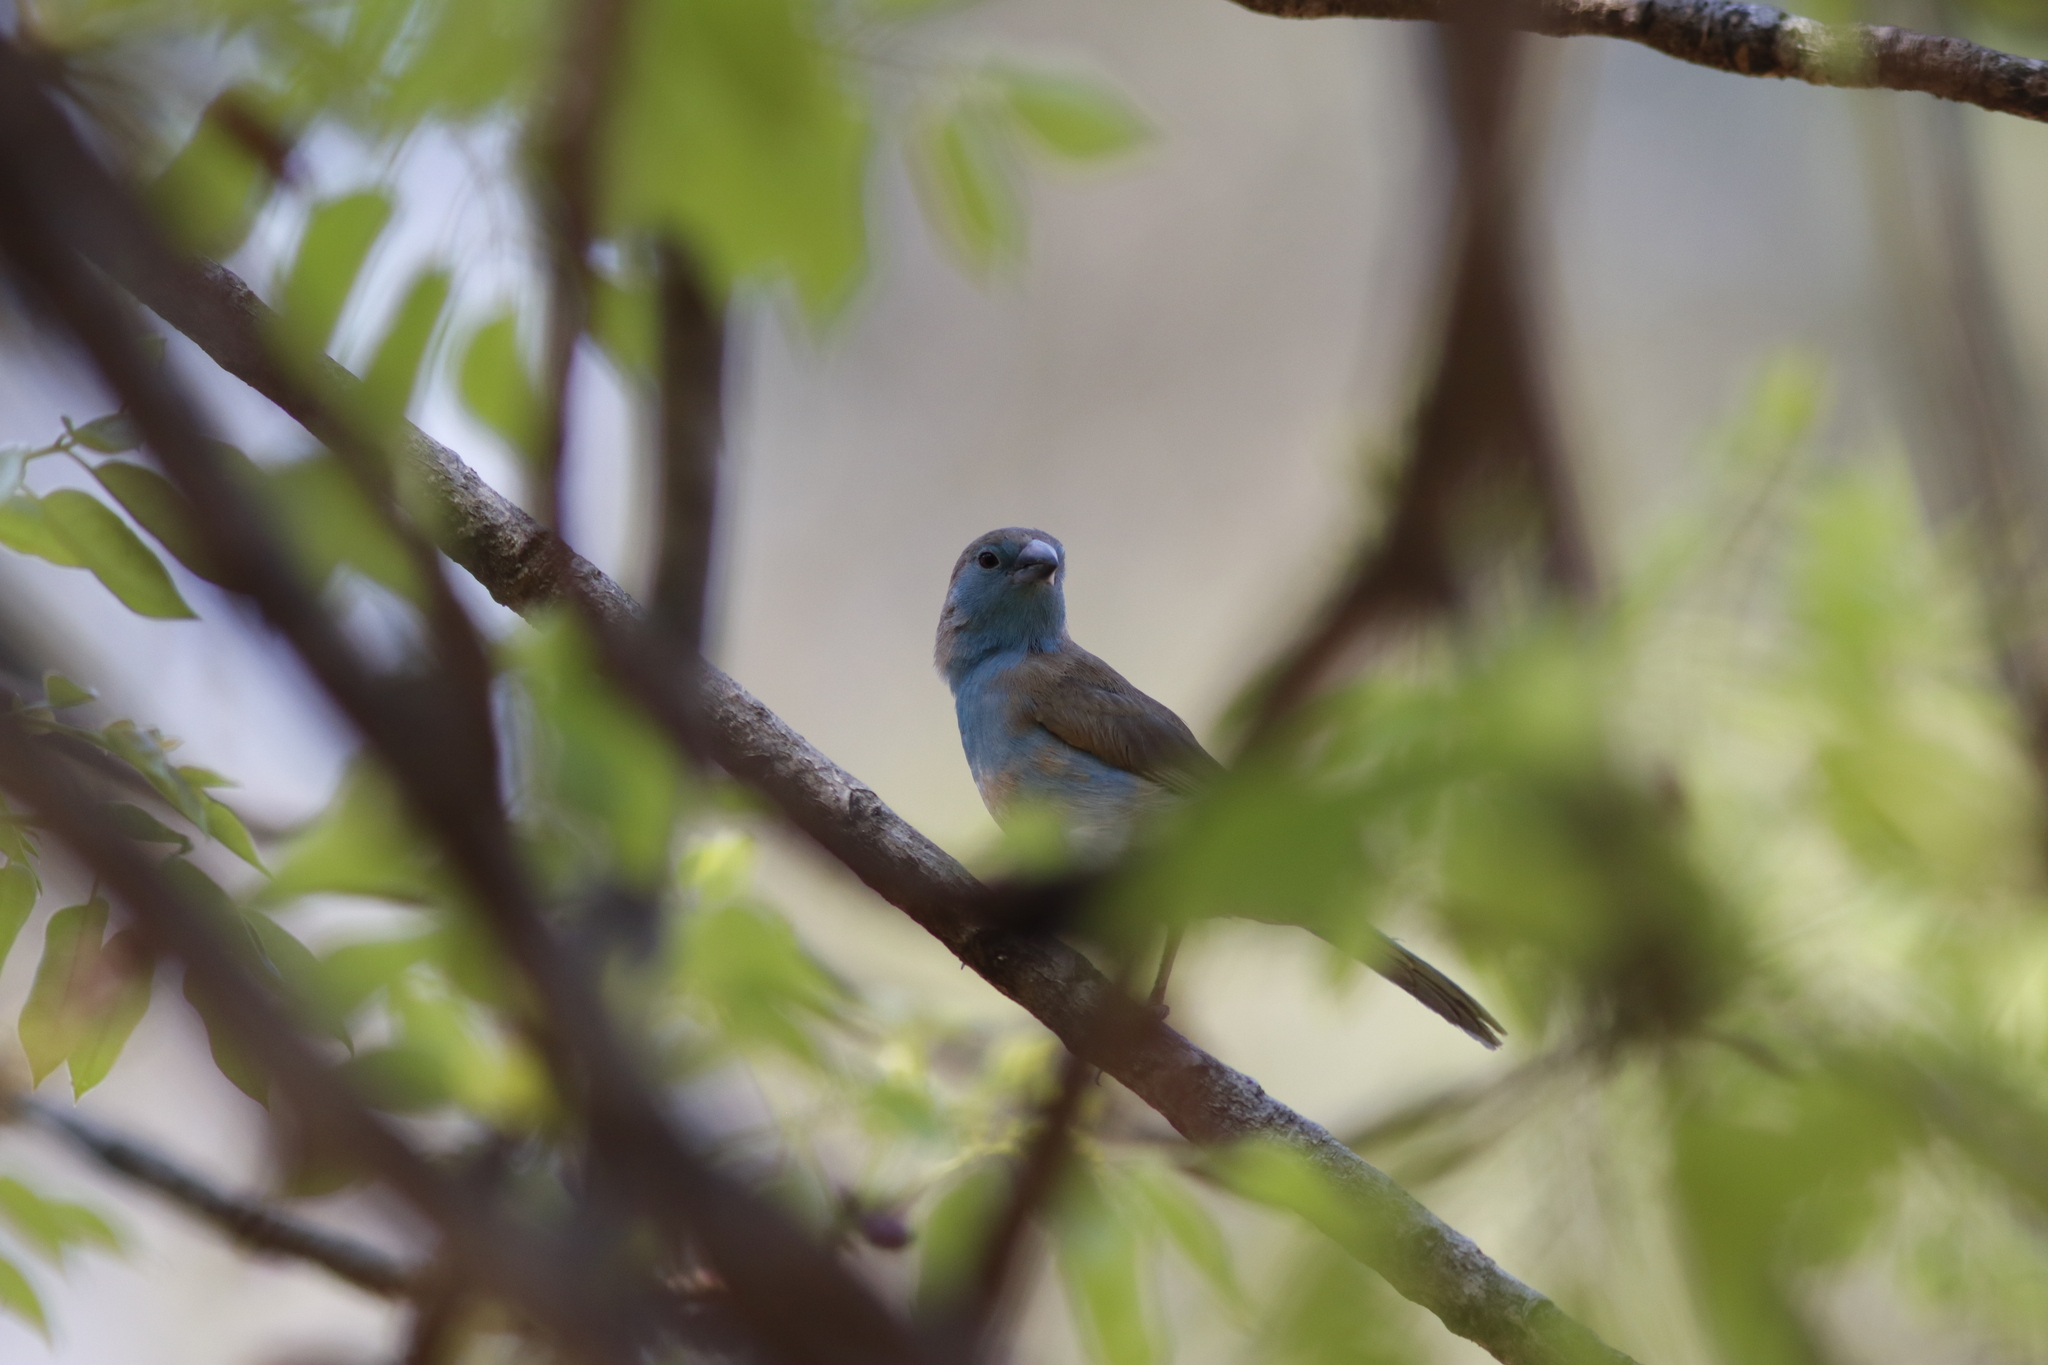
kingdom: Animalia
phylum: Chordata
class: Aves
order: Passeriformes
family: Estrildidae
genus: Uraeginthus
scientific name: Uraeginthus angolensis
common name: Blue waxbill
